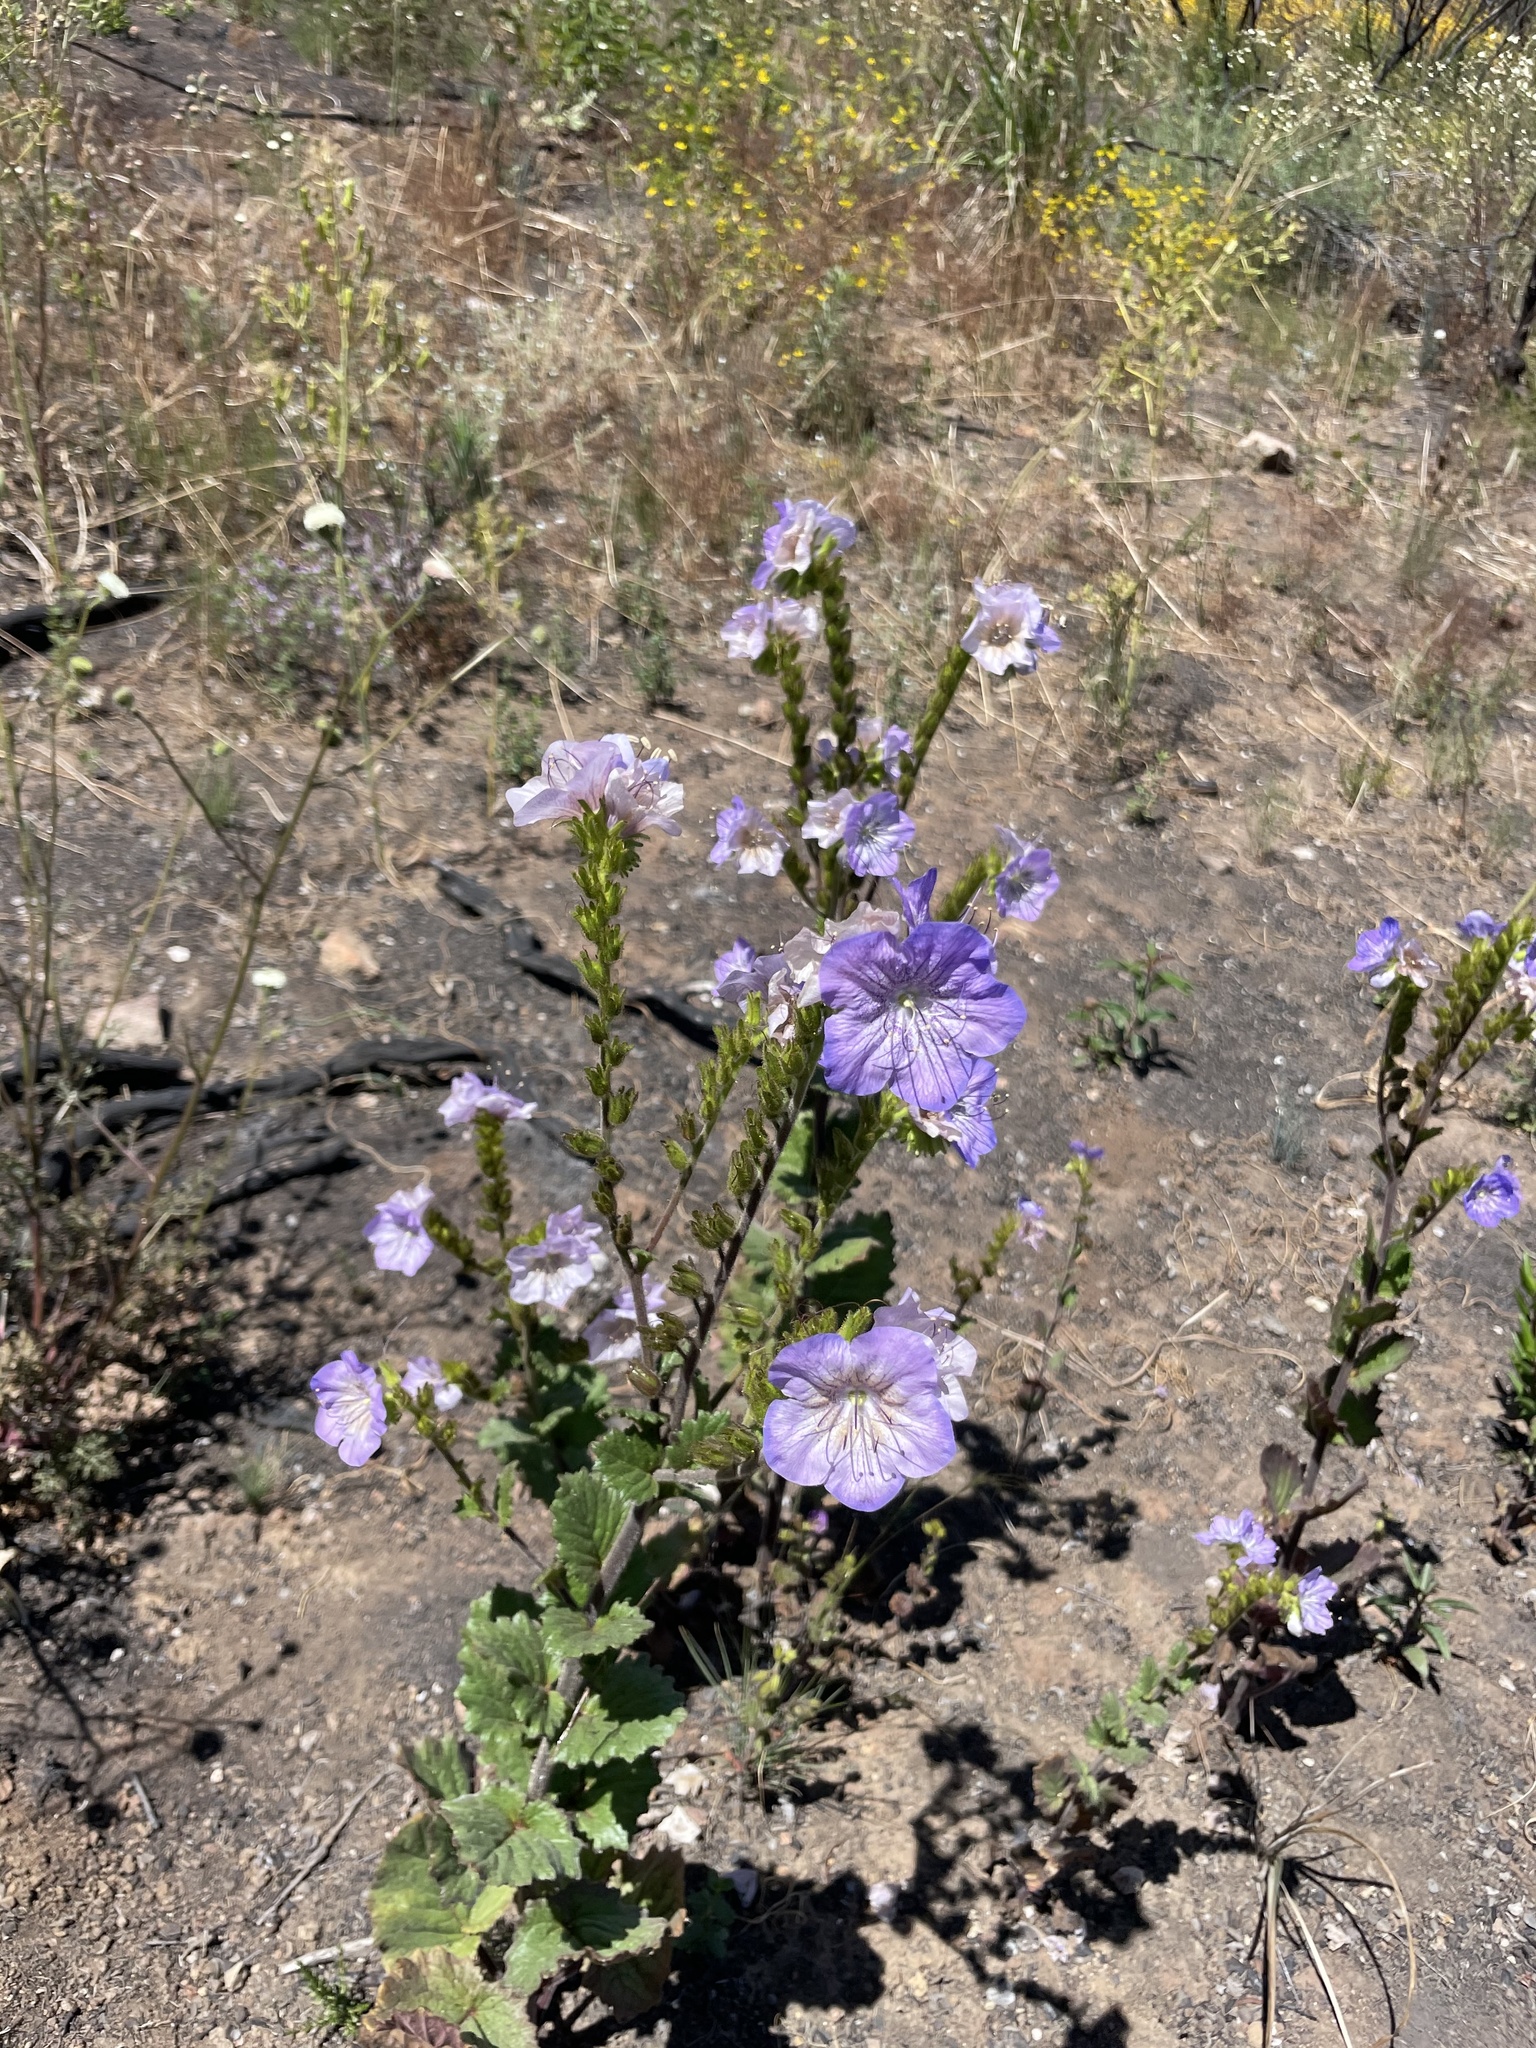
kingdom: Plantae
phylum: Tracheophyta
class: Magnoliopsida
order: Boraginales
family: Hydrophyllaceae
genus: Phacelia
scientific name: Phacelia grandiflora
